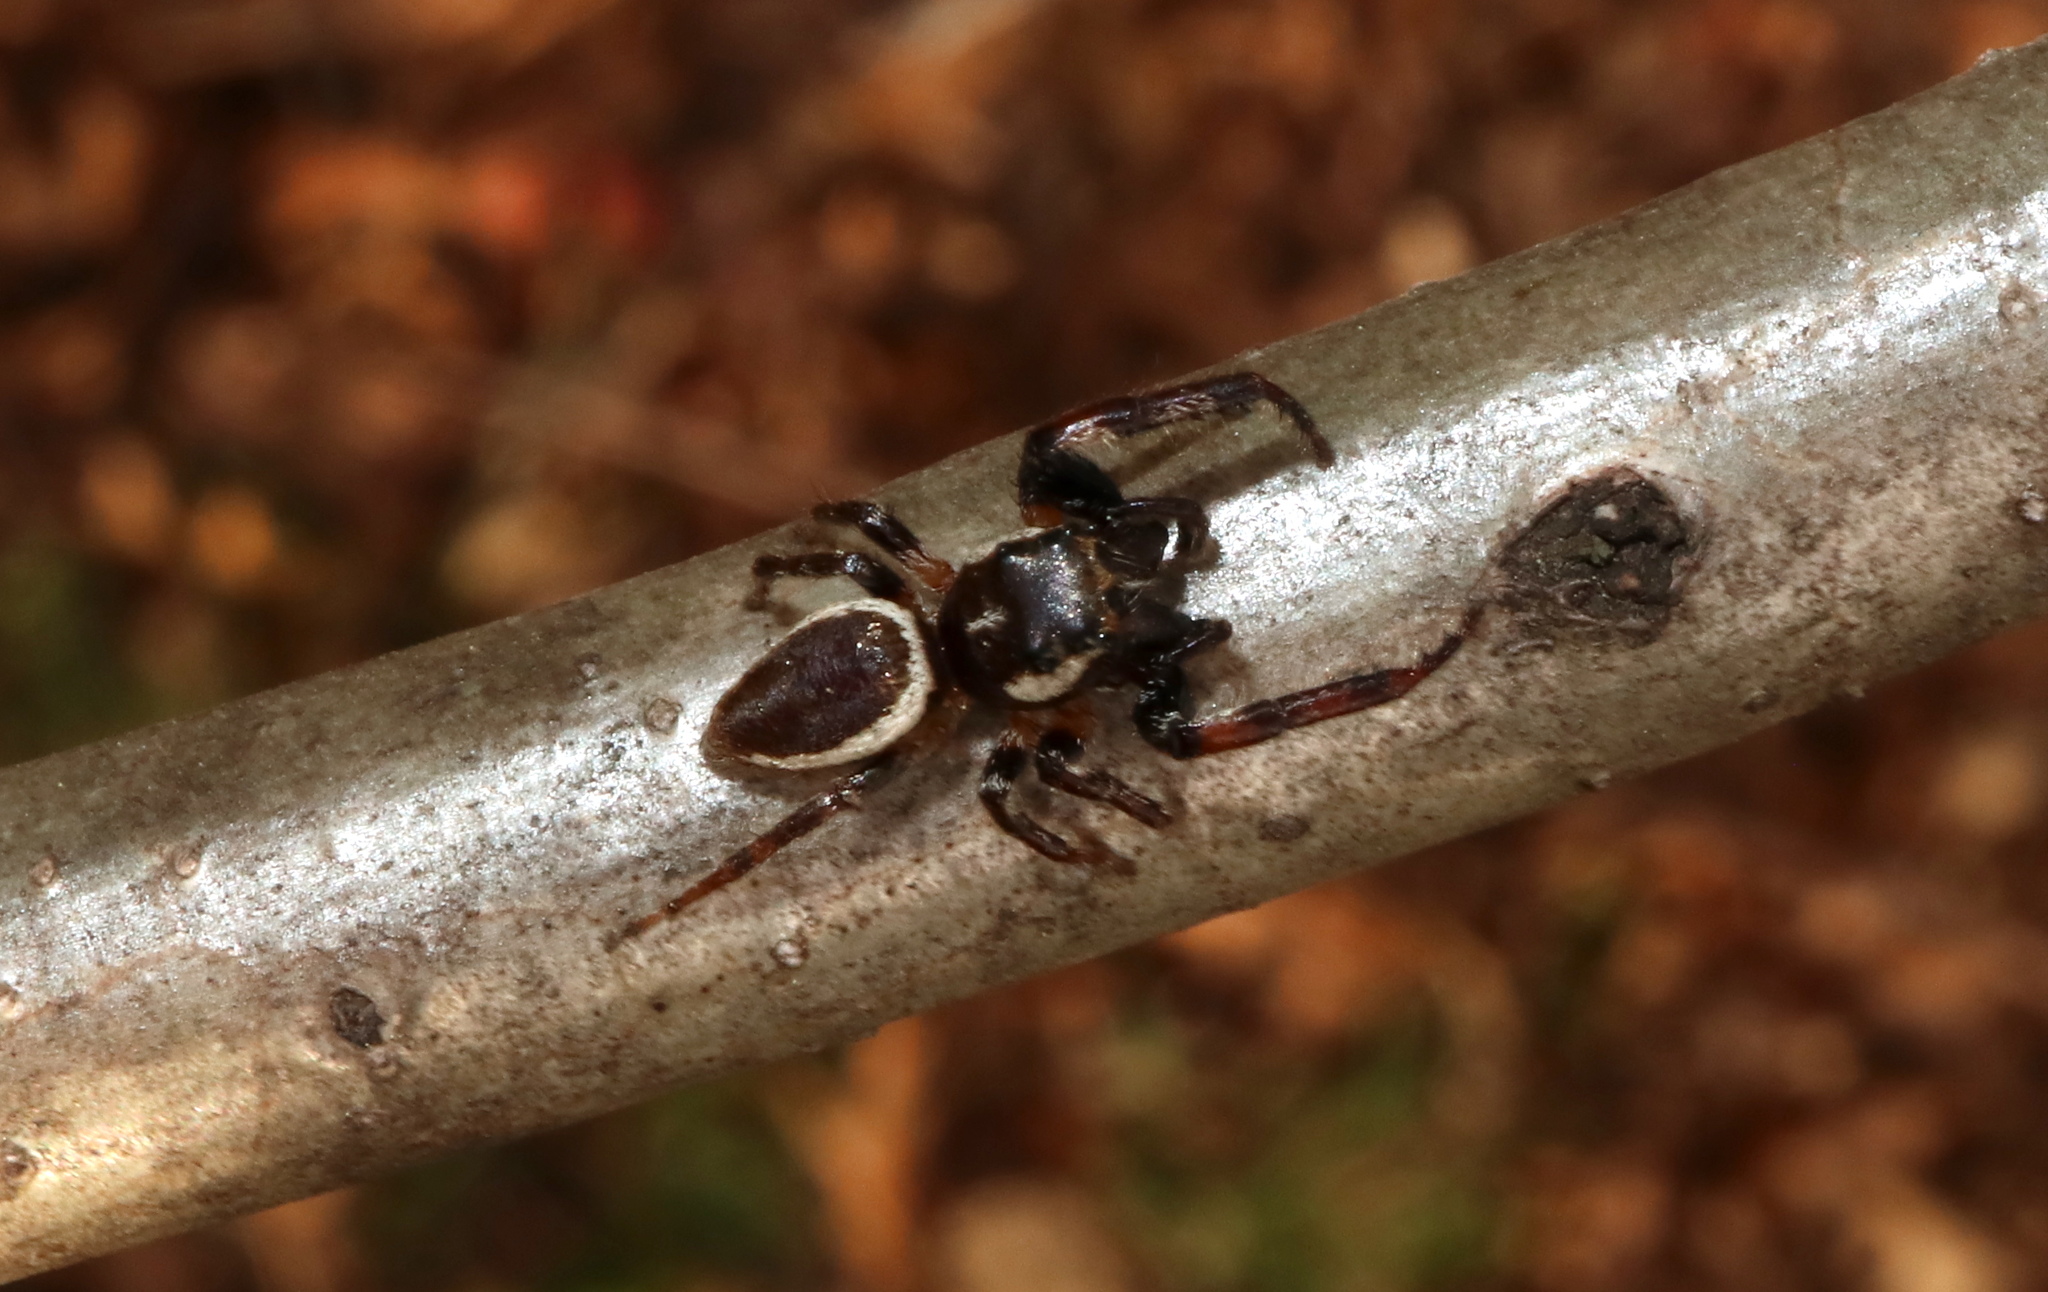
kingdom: Animalia
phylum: Arthropoda
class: Arachnida
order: Araneae
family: Salticidae
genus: Eris
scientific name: Eris militaris
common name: Bronze jumper
